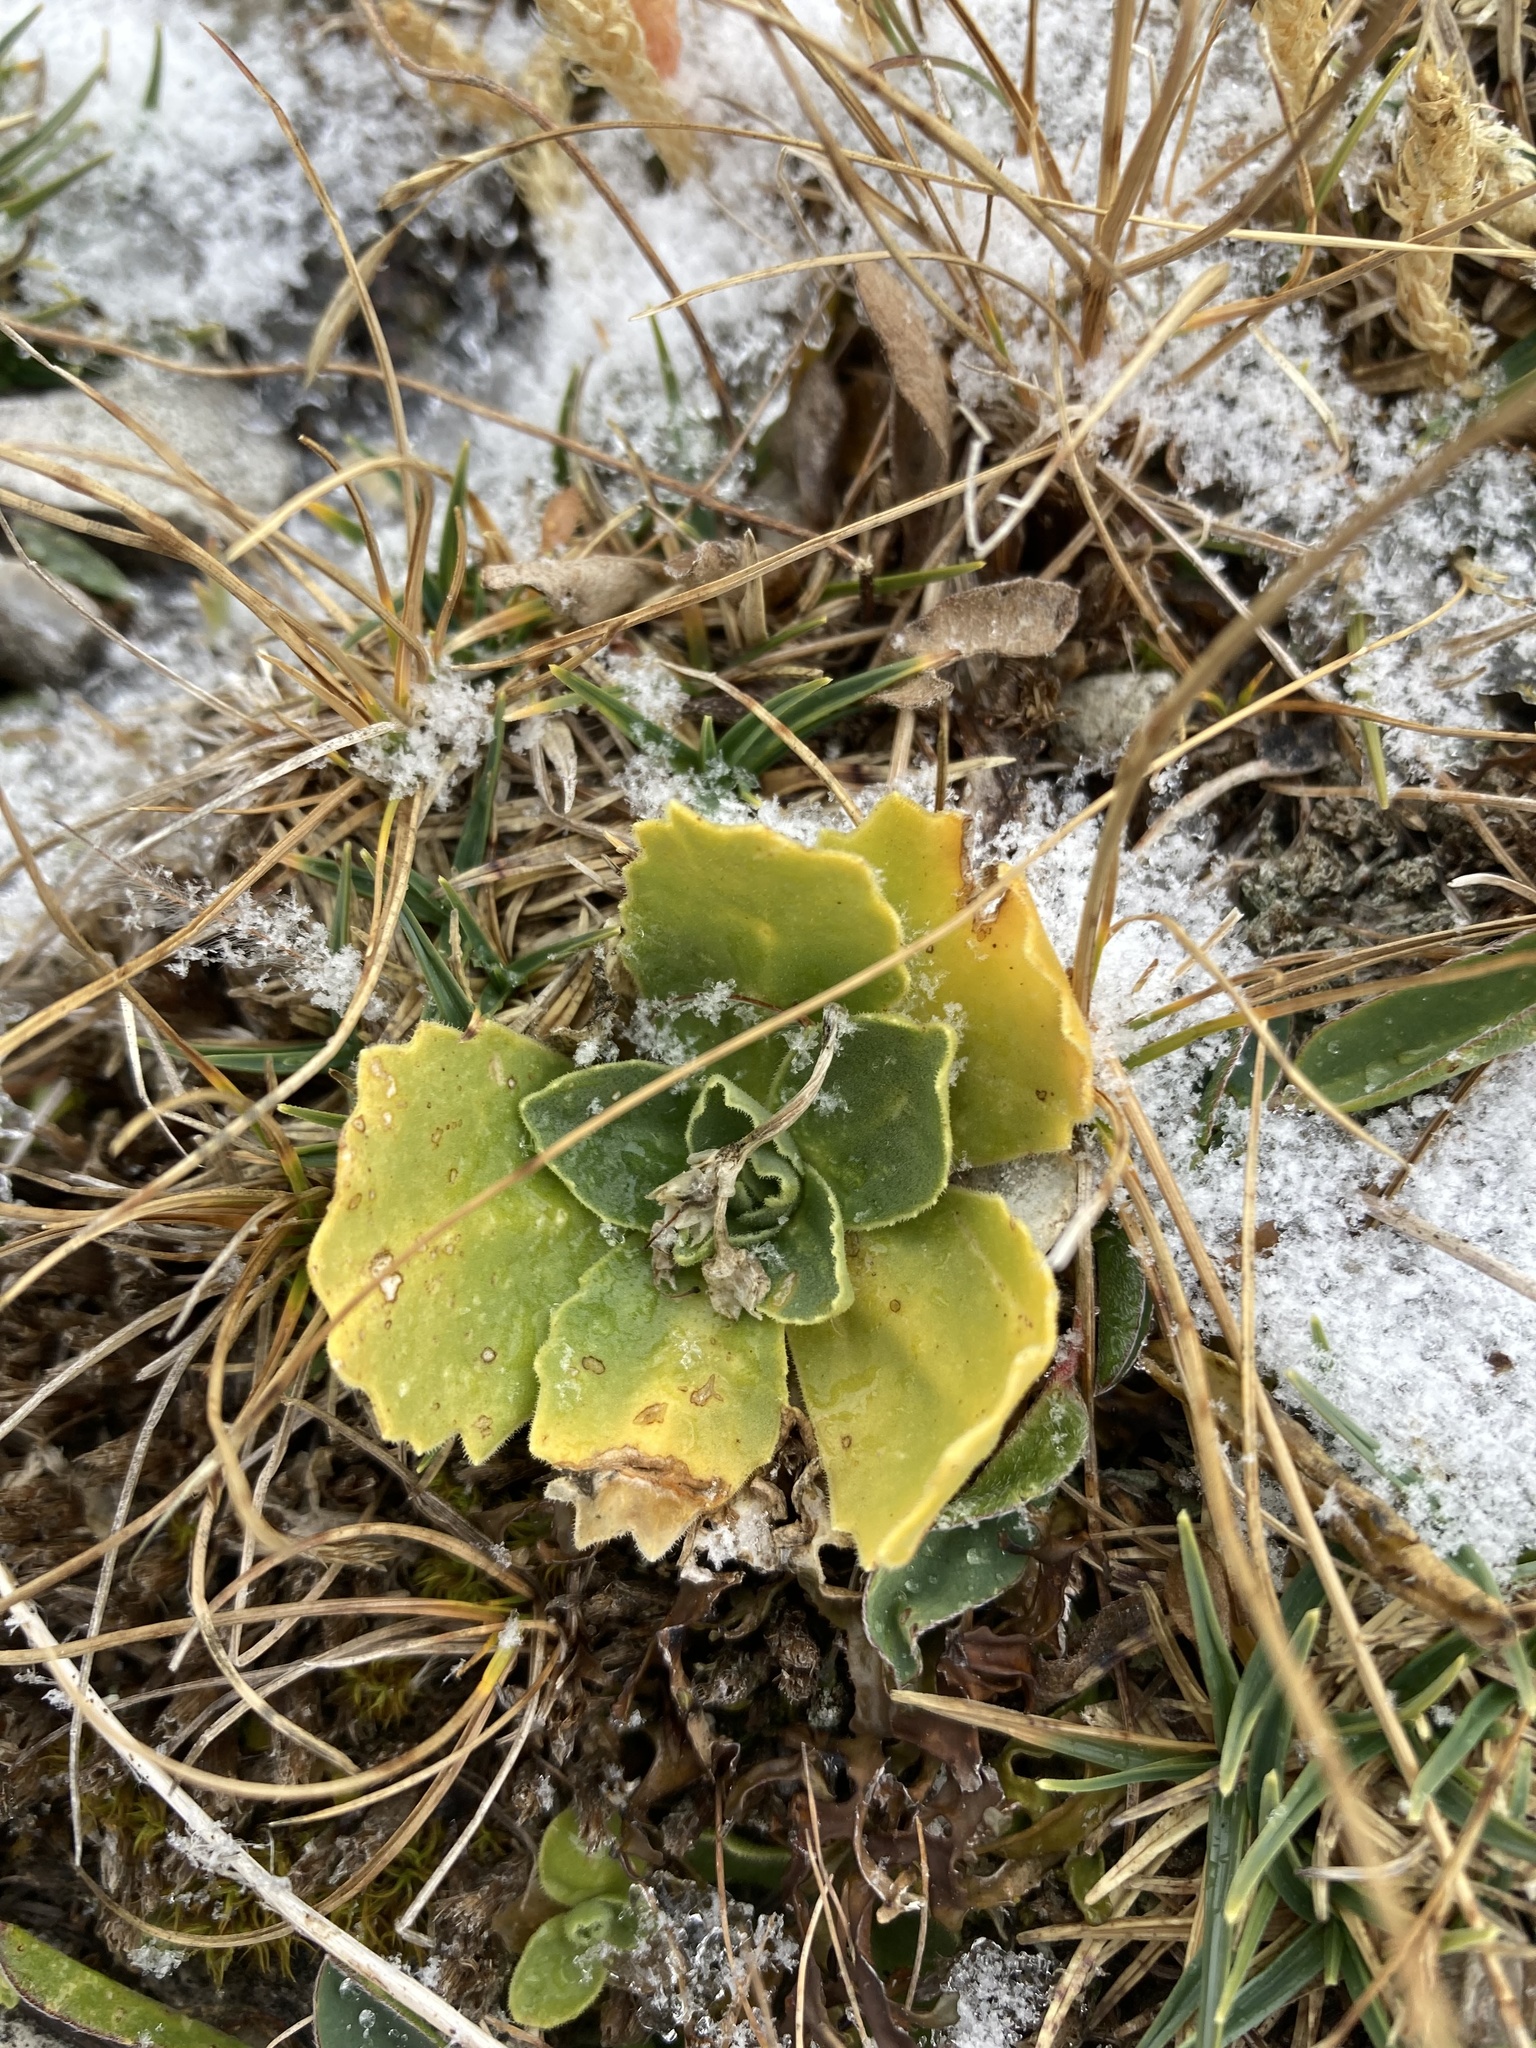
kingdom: Plantae
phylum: Tracheophyta
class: Magnoliopsida
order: Ericales
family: Primulaceae
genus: Primula
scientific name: Primula auricula
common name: Auricula
